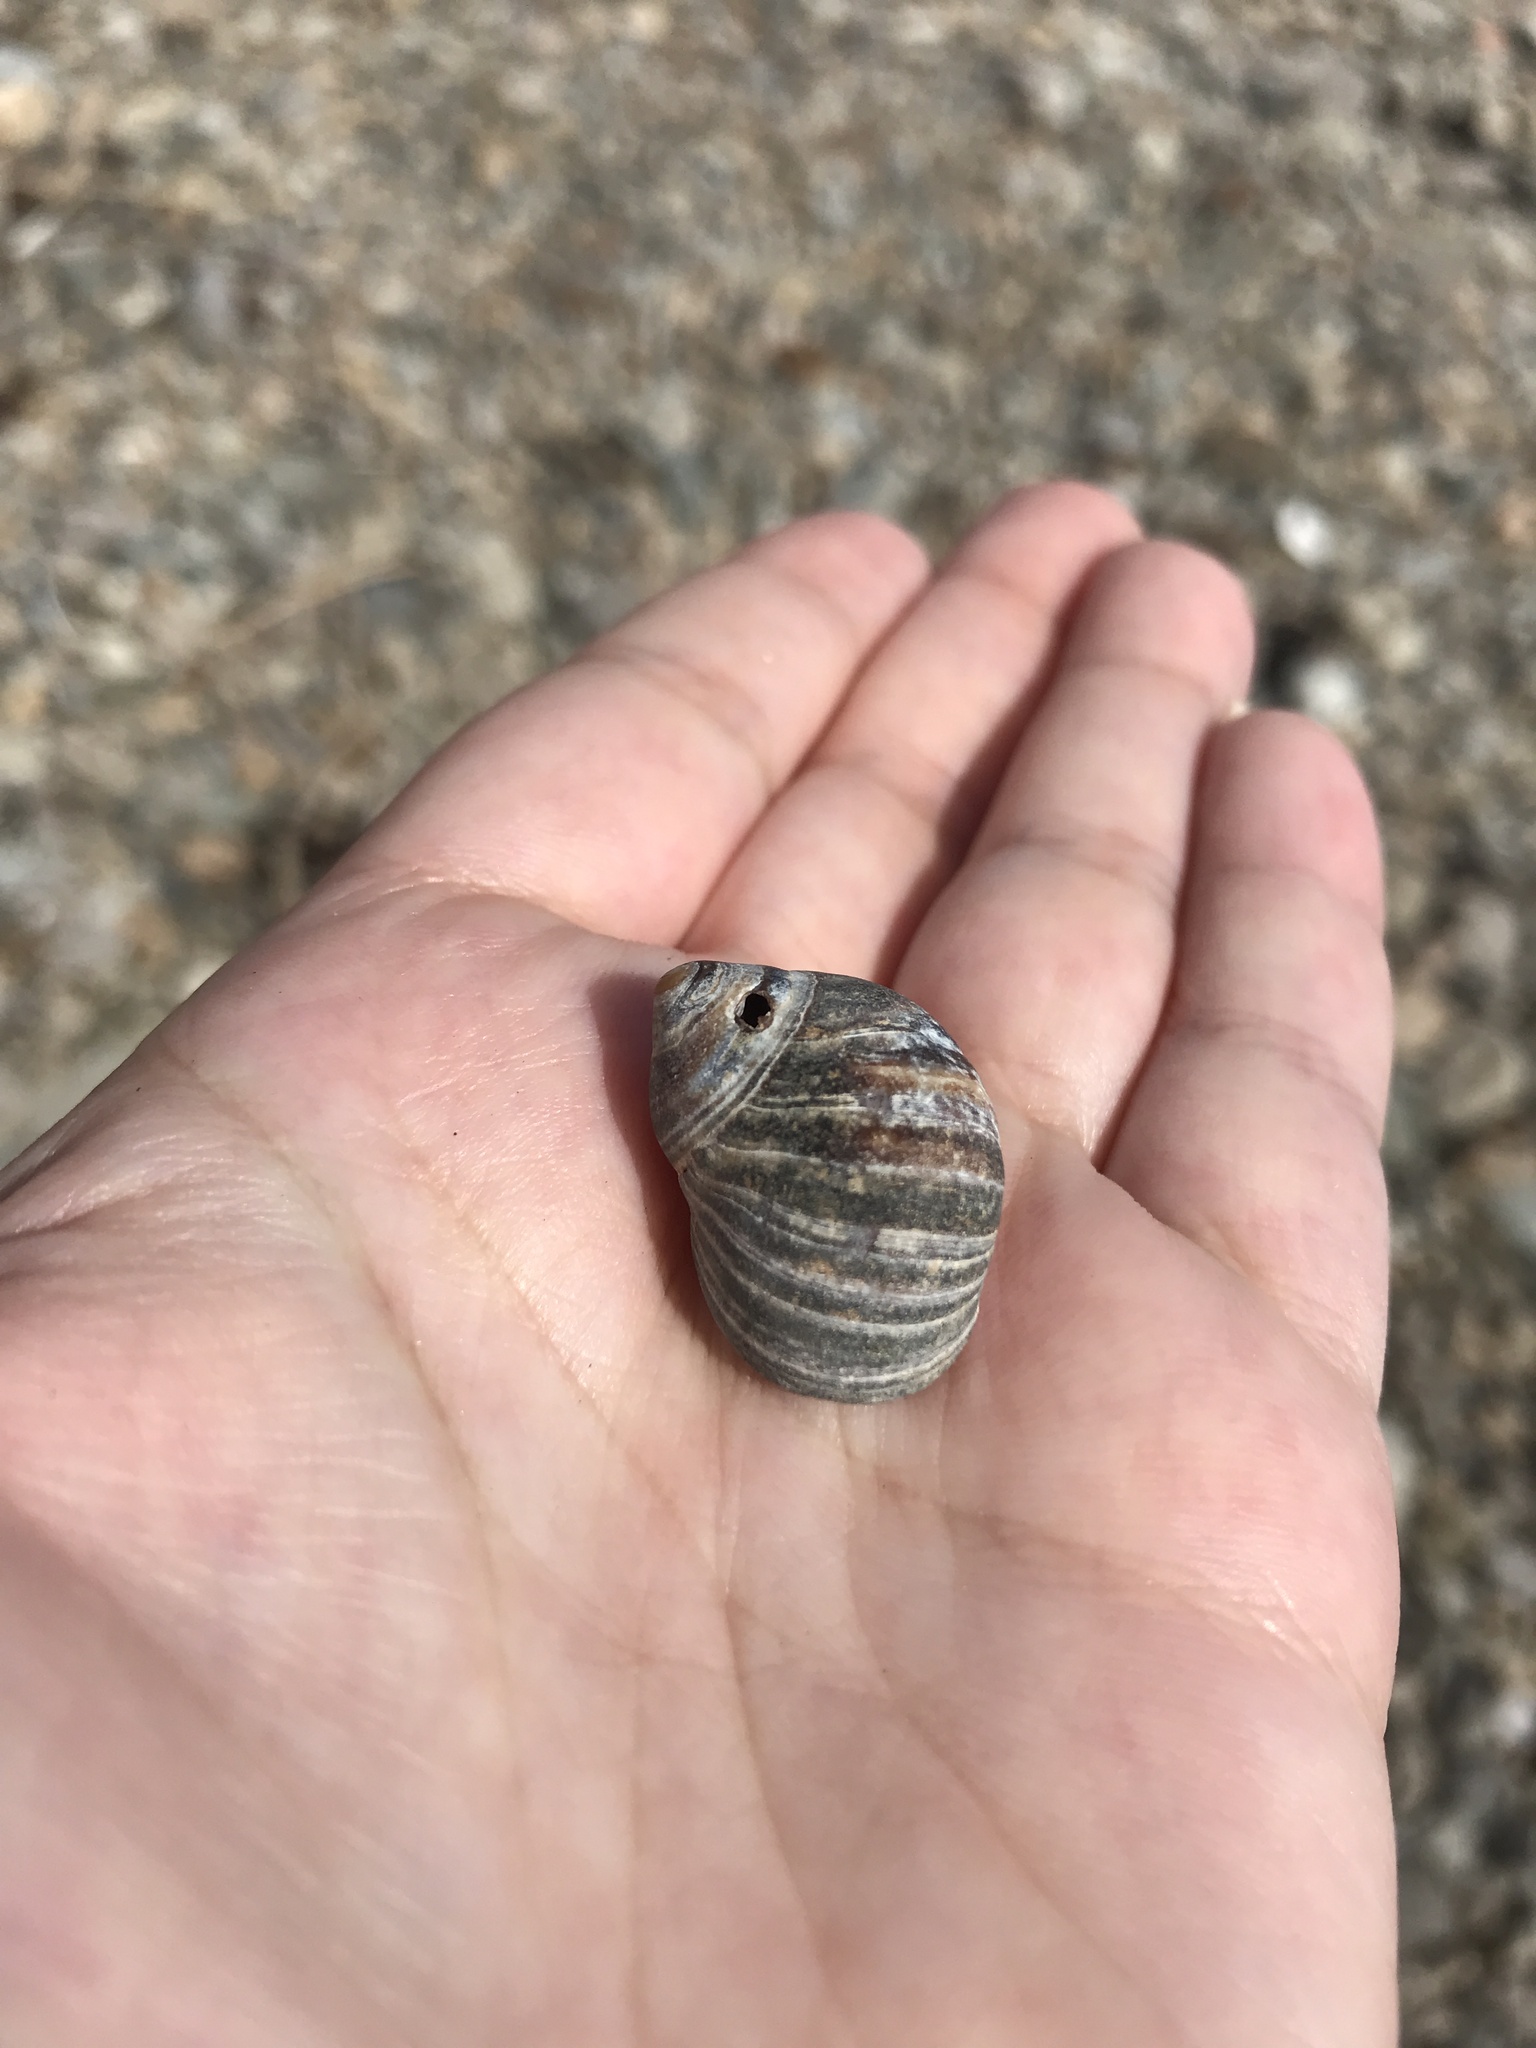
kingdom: Animalia
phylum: Mollusca
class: Gastropoda
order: Littorinimorpha
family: Littorinidae
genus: Littorina
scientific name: Littorina littorea
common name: Common periwinkle
